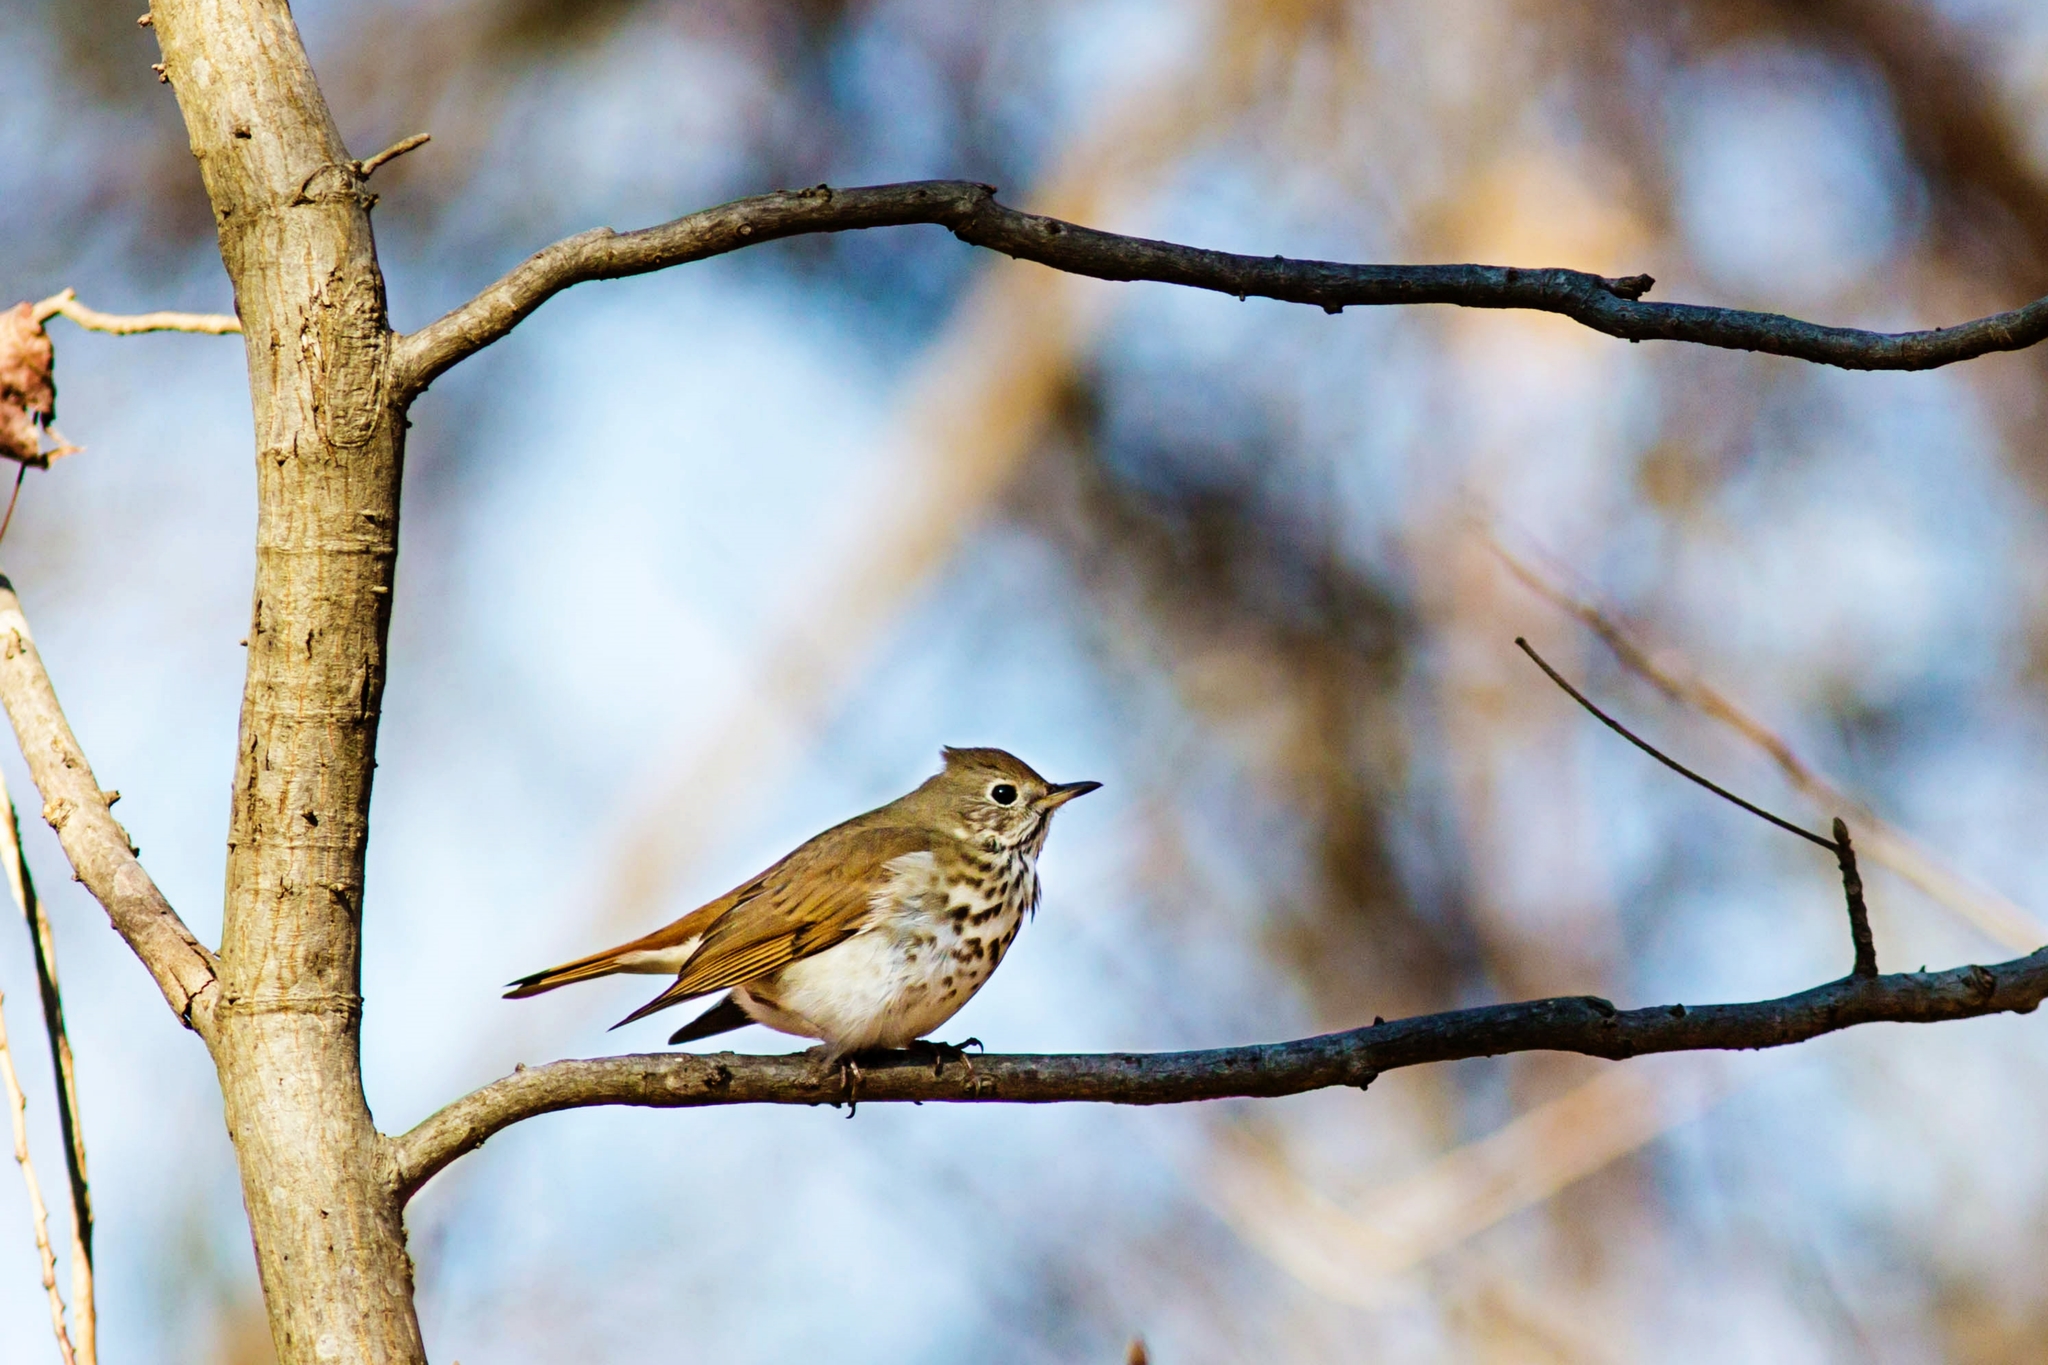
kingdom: Animalia
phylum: Chordata
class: Aves
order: Passeriformes
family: Turdidae
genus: Catharus
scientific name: Catharus guttatus
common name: Hermit thrush
